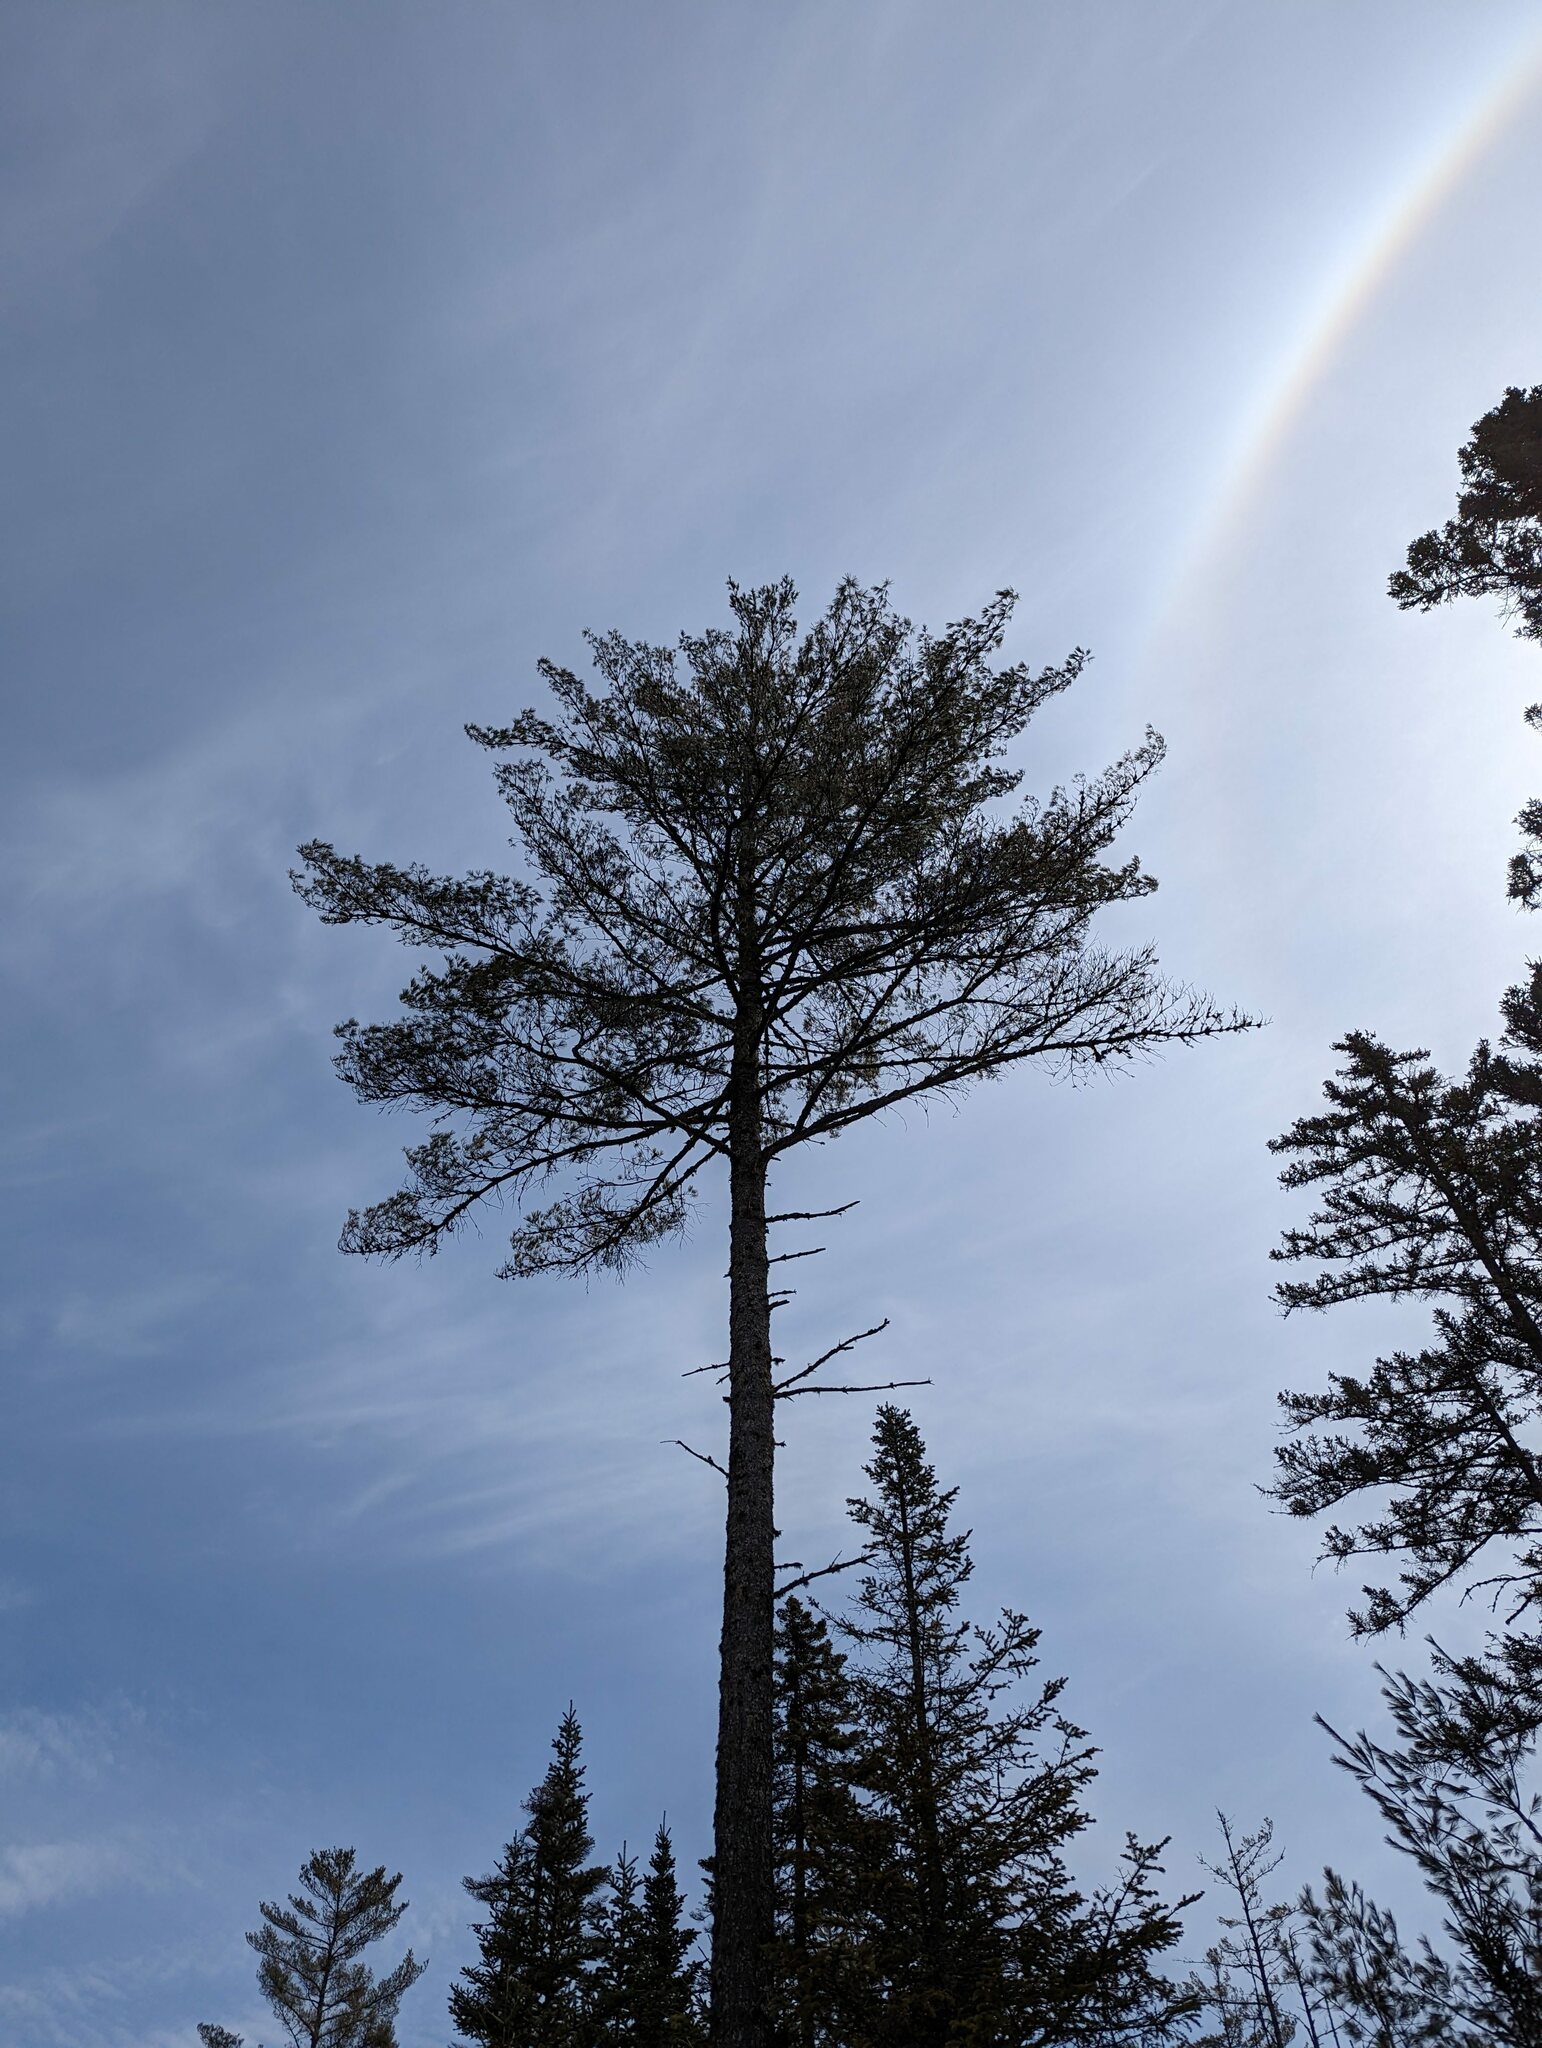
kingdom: Plantae
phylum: Tracheophyta
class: Pinopsida
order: Pinales
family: Pinaceae
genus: Pinus
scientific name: Pinus strobus
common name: Weymouth pine
